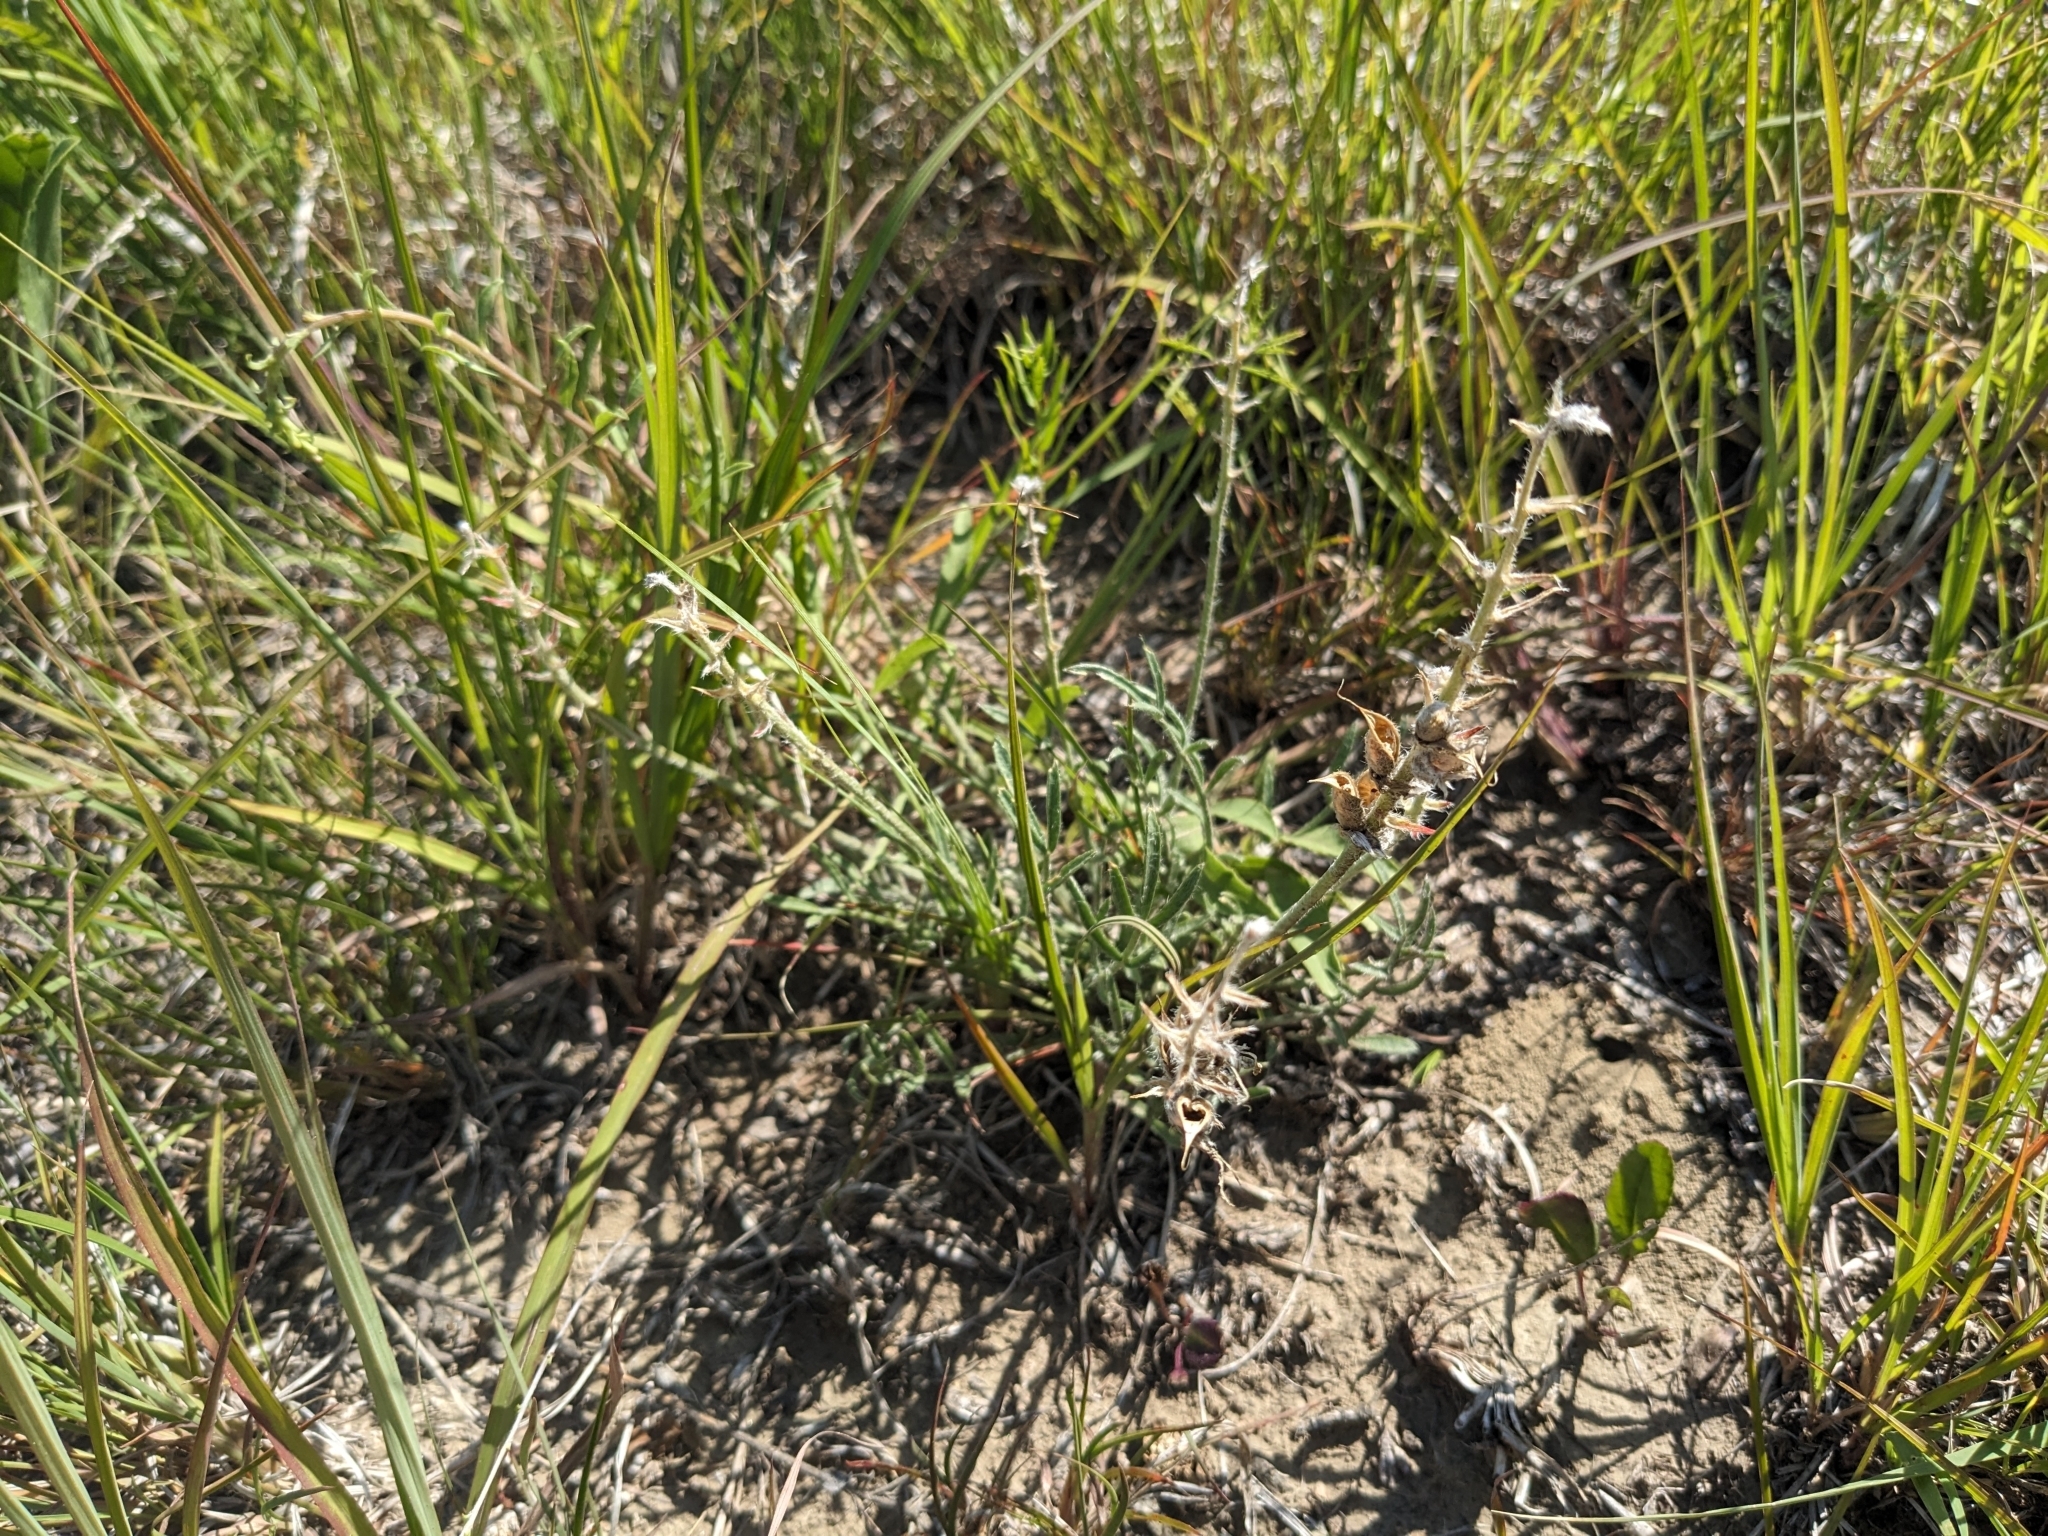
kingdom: Plantae
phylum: Tracheophyta
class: Magnoliopsida
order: Fabales
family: Fabaceae
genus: Oxytropis
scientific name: Oxytropis lambertii
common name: Purple locoweed
